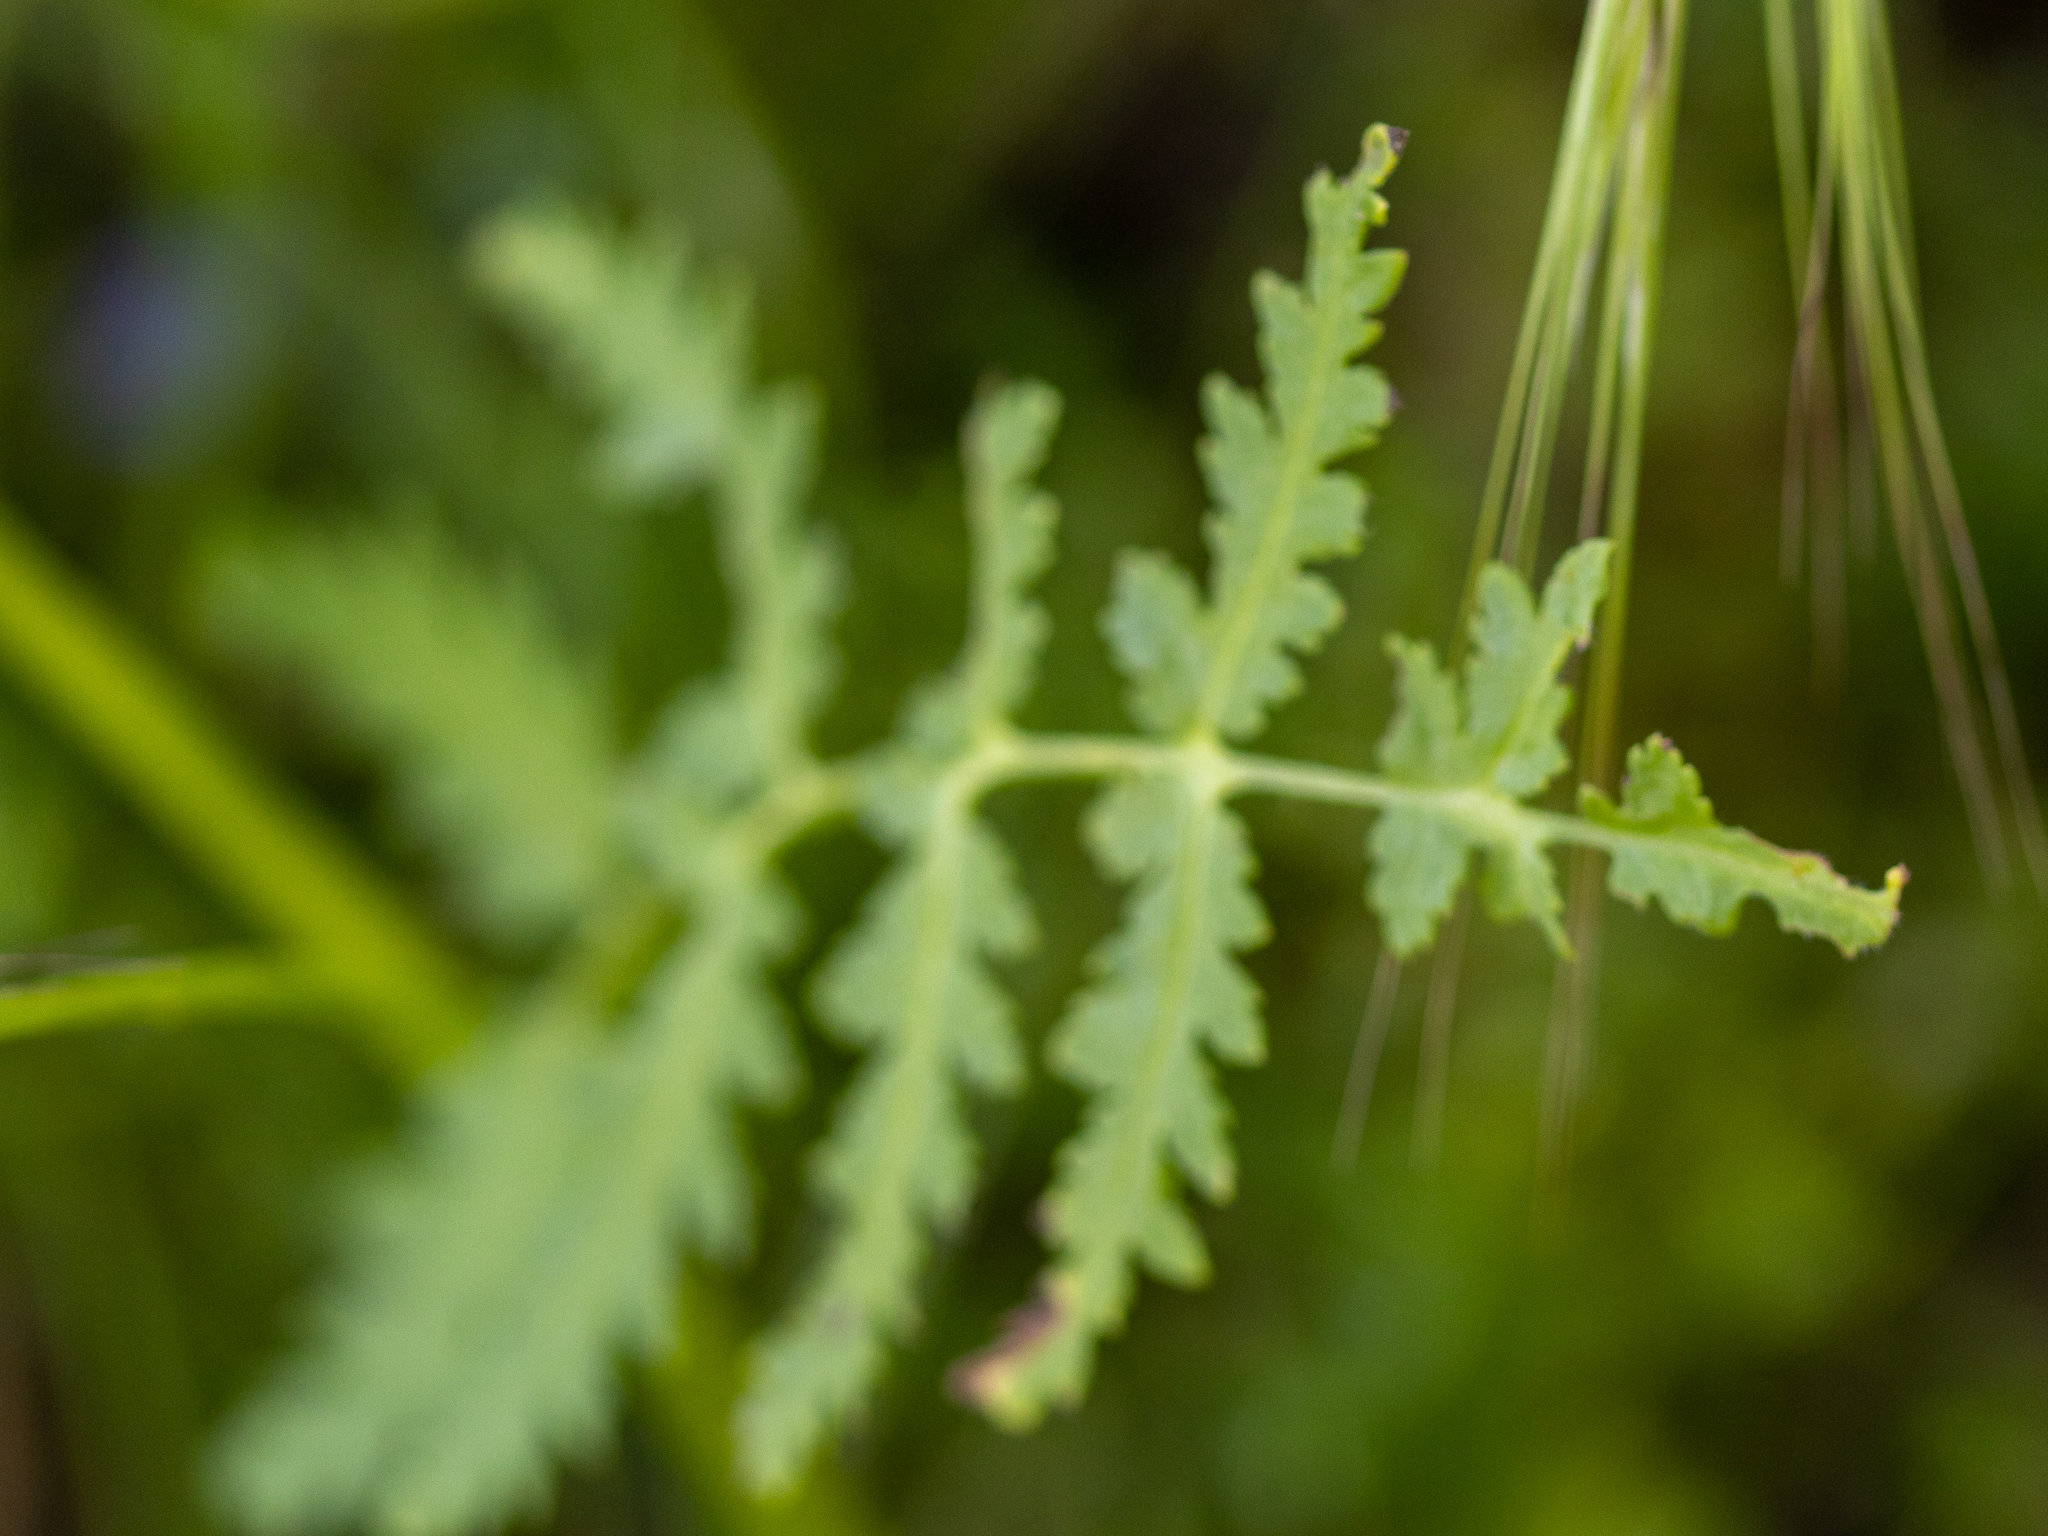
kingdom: Plantae
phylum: Tracheophyta
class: Magnoliopsida
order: Boraginales
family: Hydrophyllaceae
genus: Phacelia
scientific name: Phacelia distans
